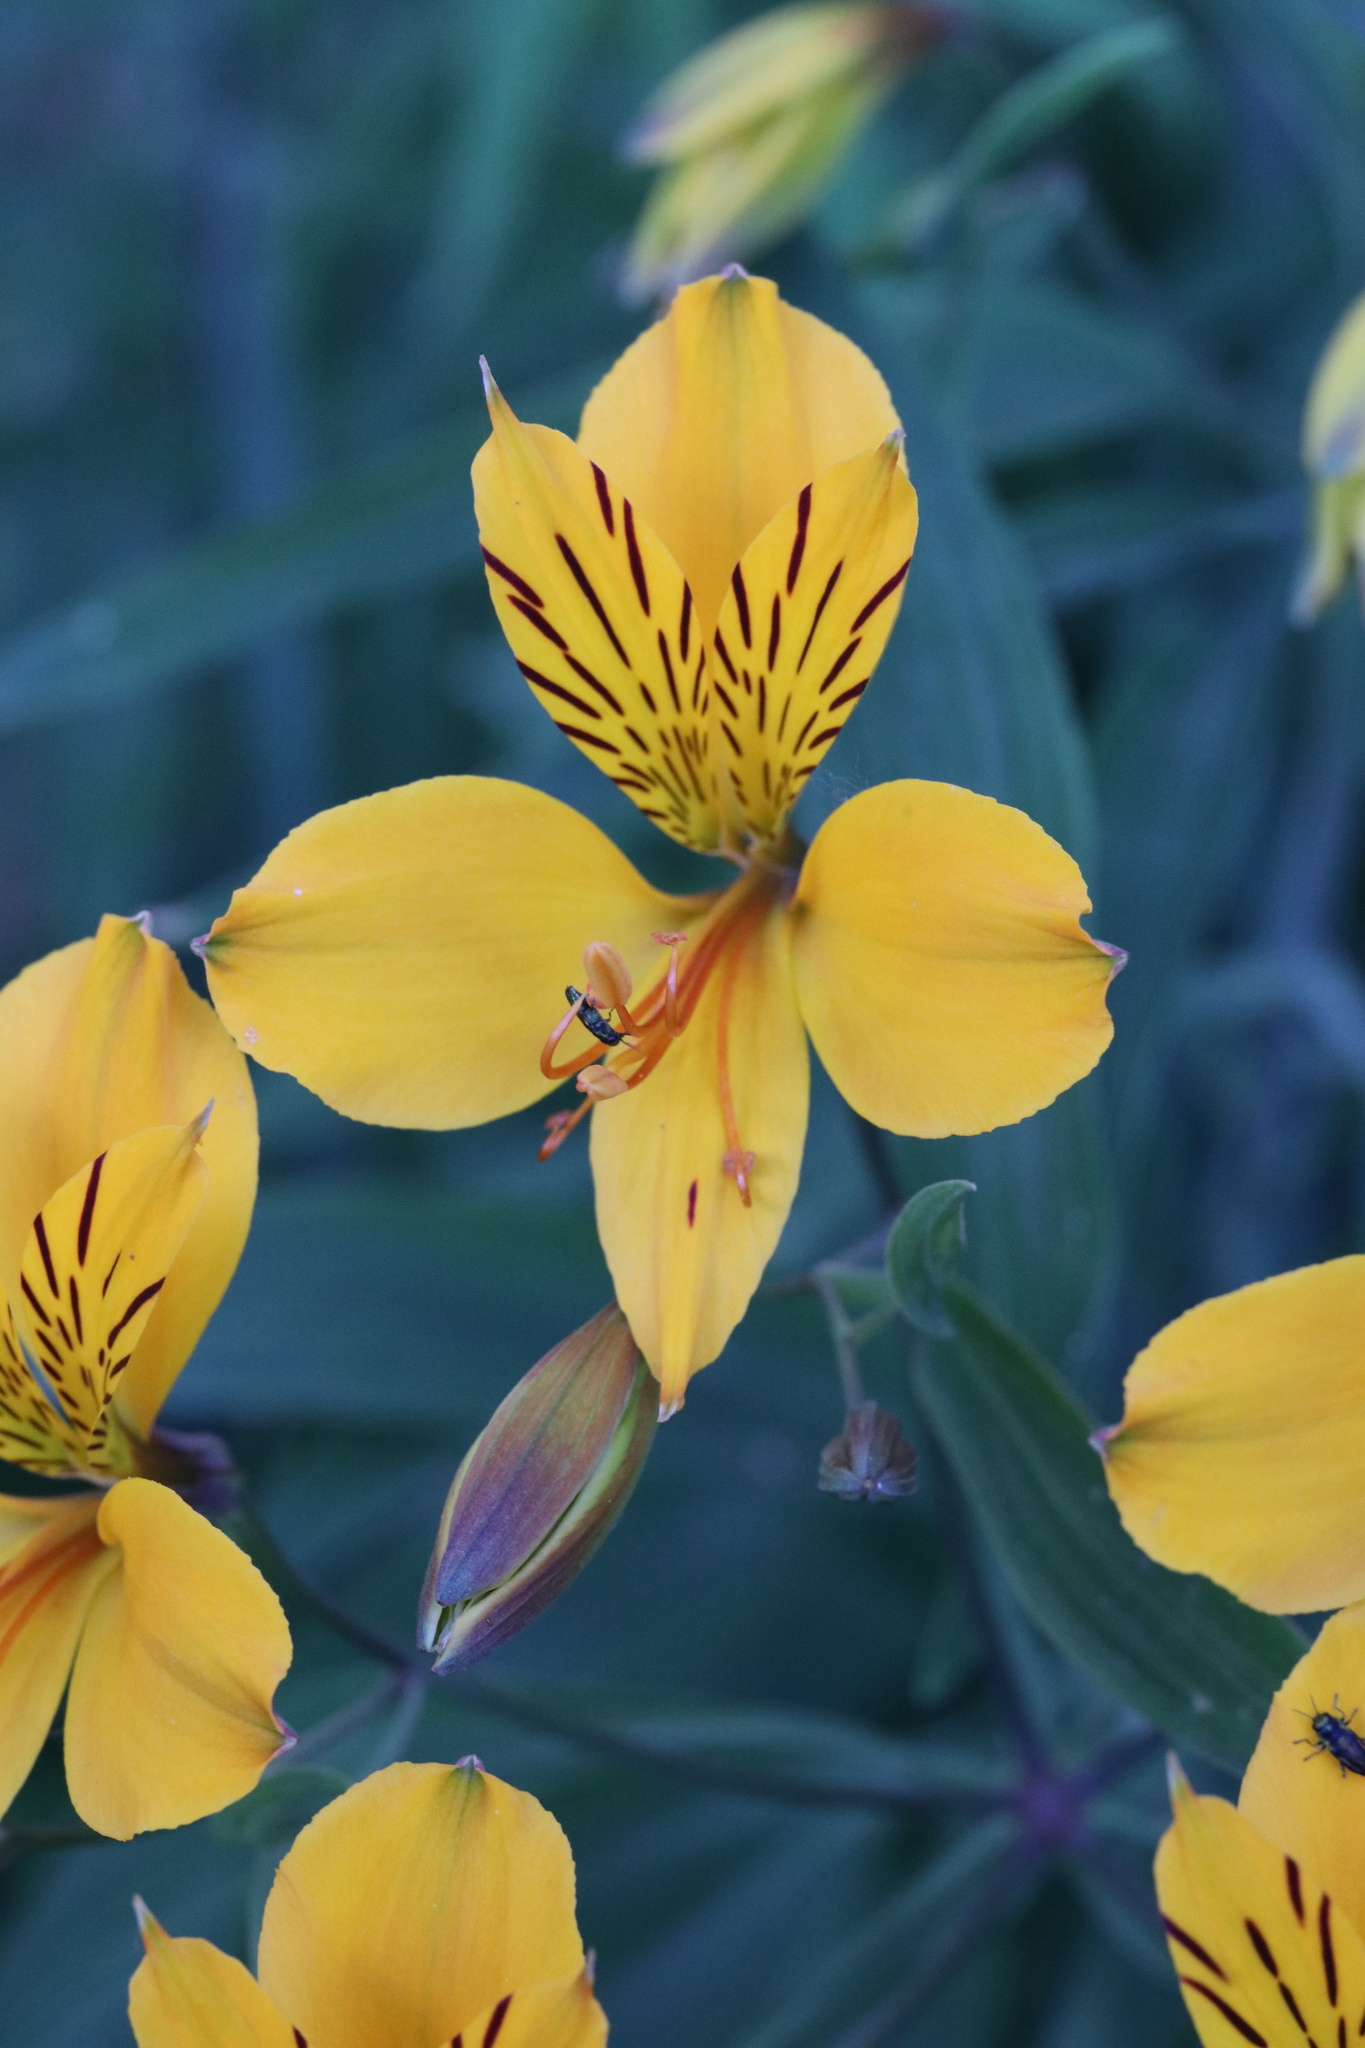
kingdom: Plantae
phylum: Tracheophyta
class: Liliopsida
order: Liliales
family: Alstroemeriaceae
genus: Alstroemeria
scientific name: Alstroemeria aurea
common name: Peruvian lily
